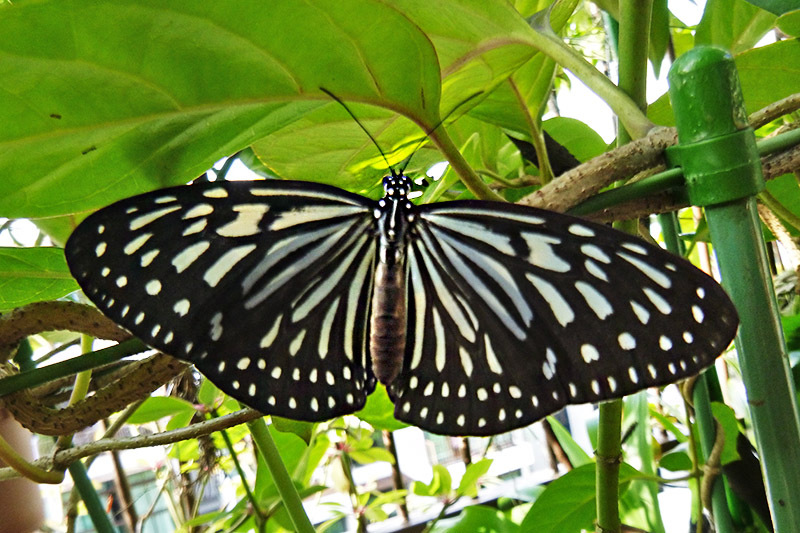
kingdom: Animalia
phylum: Arthropoda
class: Insecta
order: Lepidoptera
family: Nymphalidae
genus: Ideopsis
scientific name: Ideopsis vulgaris
